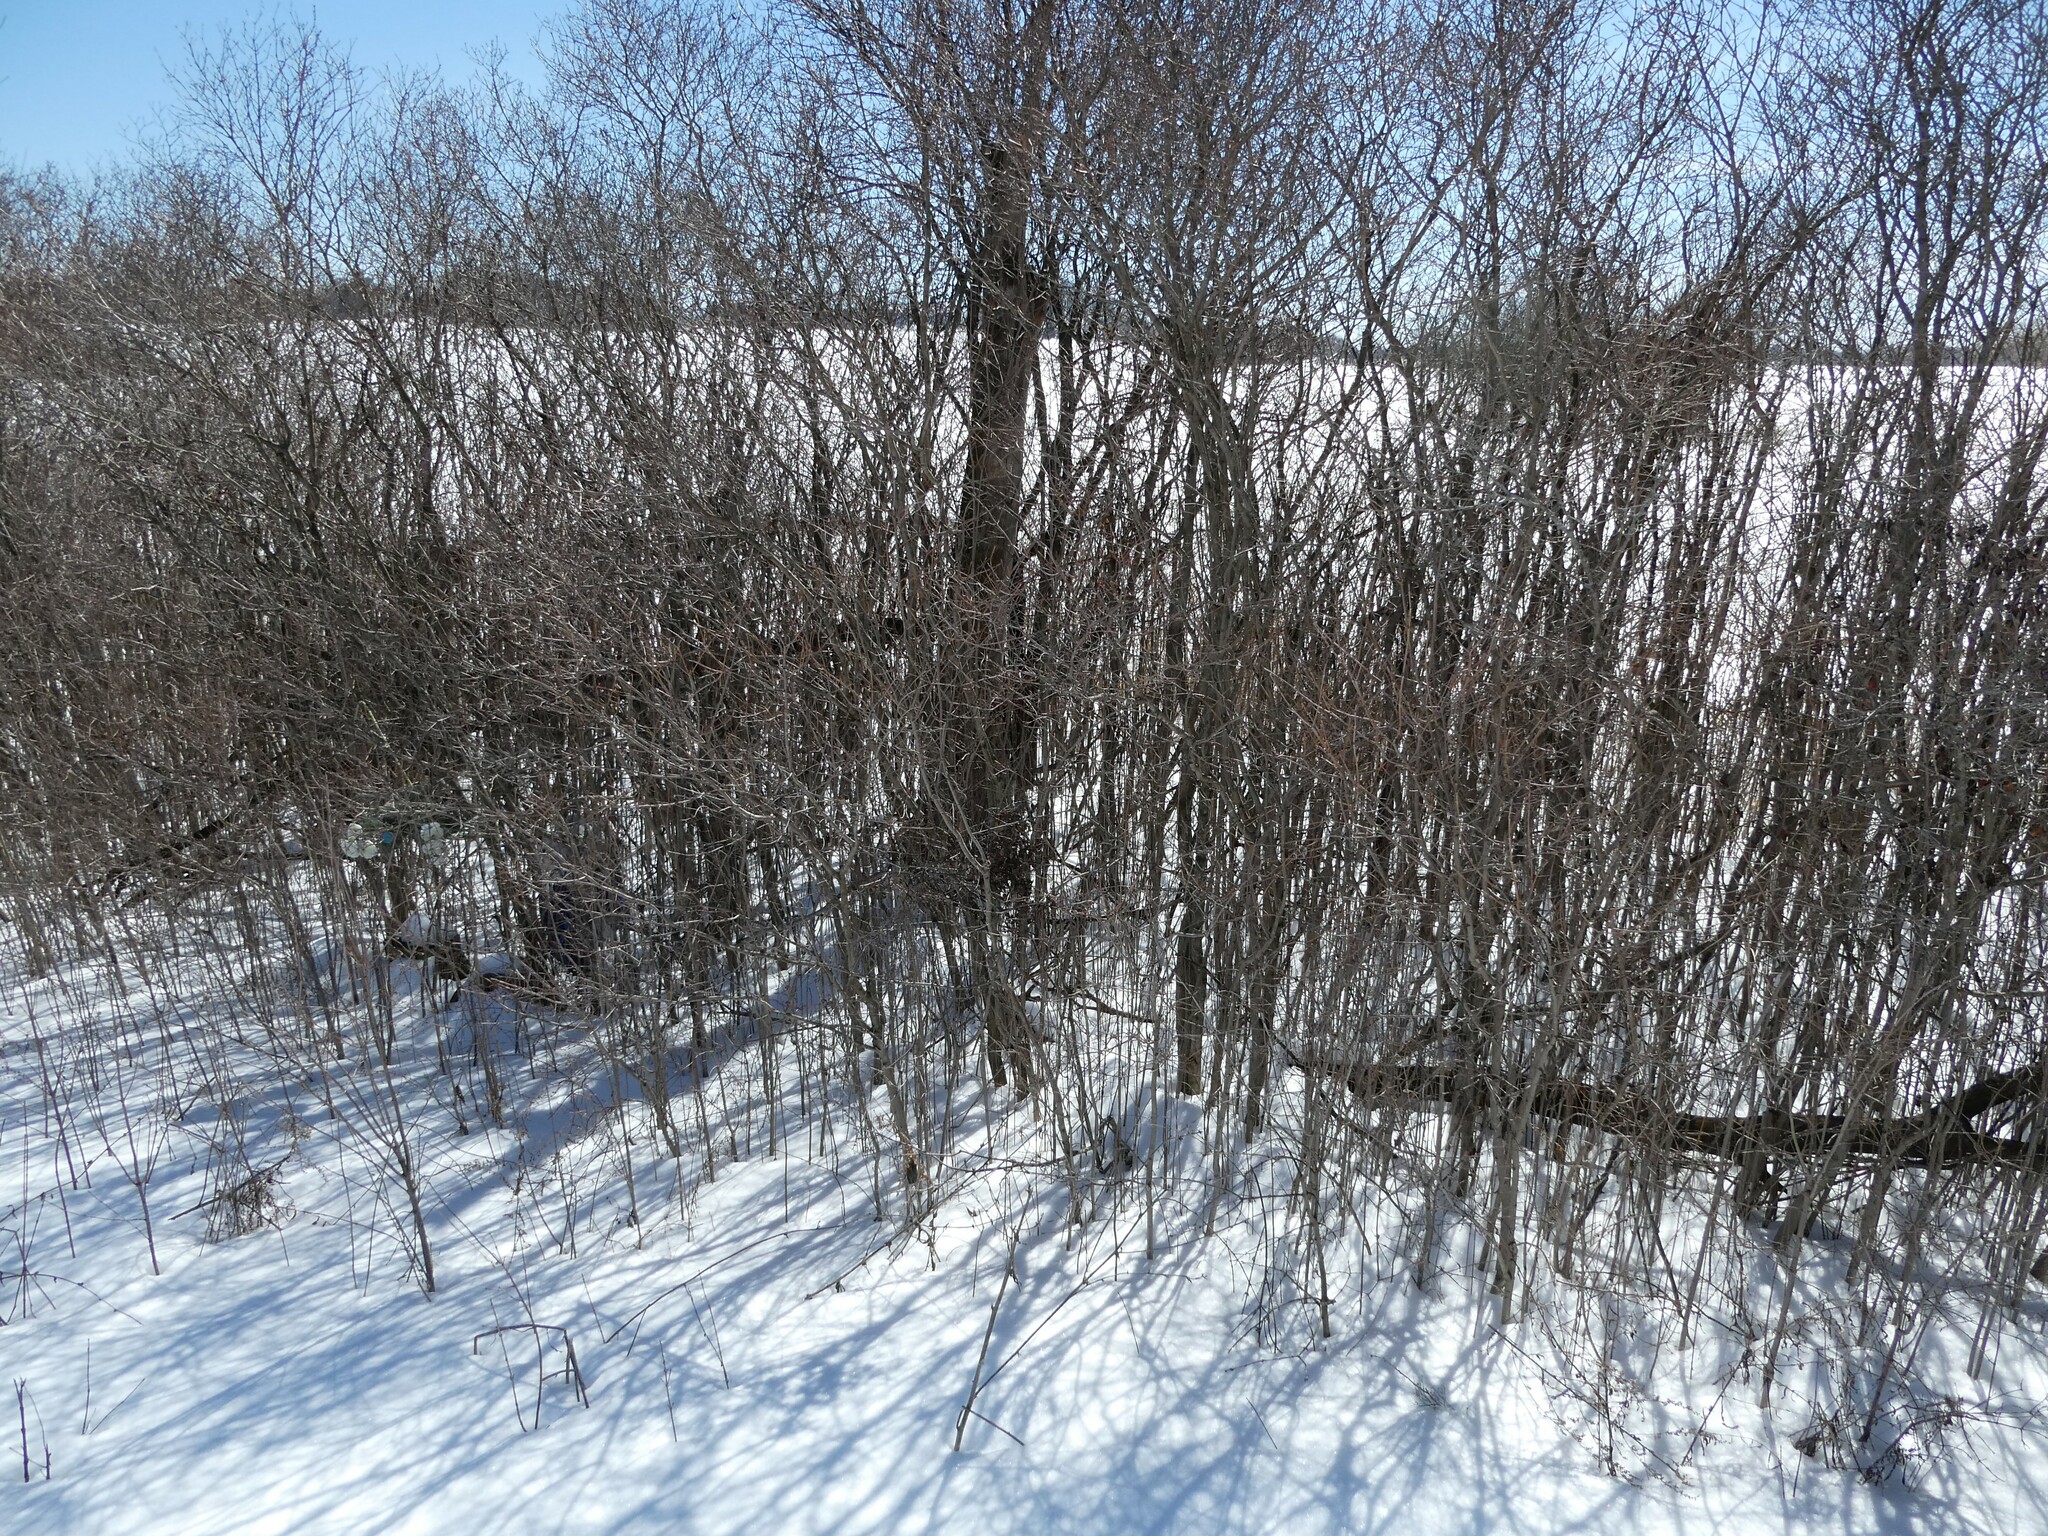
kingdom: Plantae
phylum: Tracheophyta
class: Magnoliopsida
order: Cornales
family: Cornaceae
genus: Cornus
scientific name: Cornus racemosa
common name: Panicled dogwood
